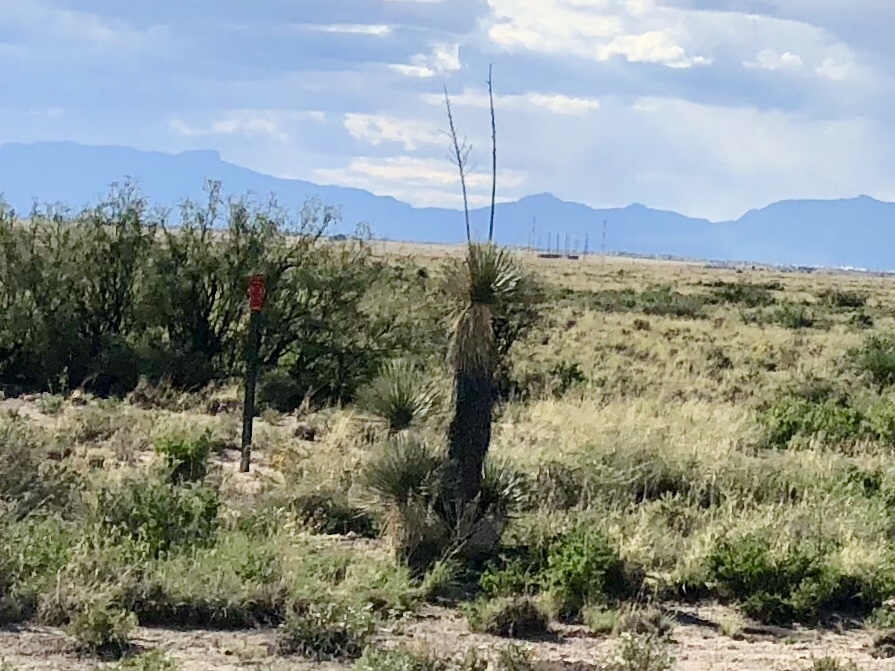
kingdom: Plantae
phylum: Tracheophyta
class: Liliopsida
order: Asparagales
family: Asparagaceae
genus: Yucca
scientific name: Yucca elata
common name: Palmella
